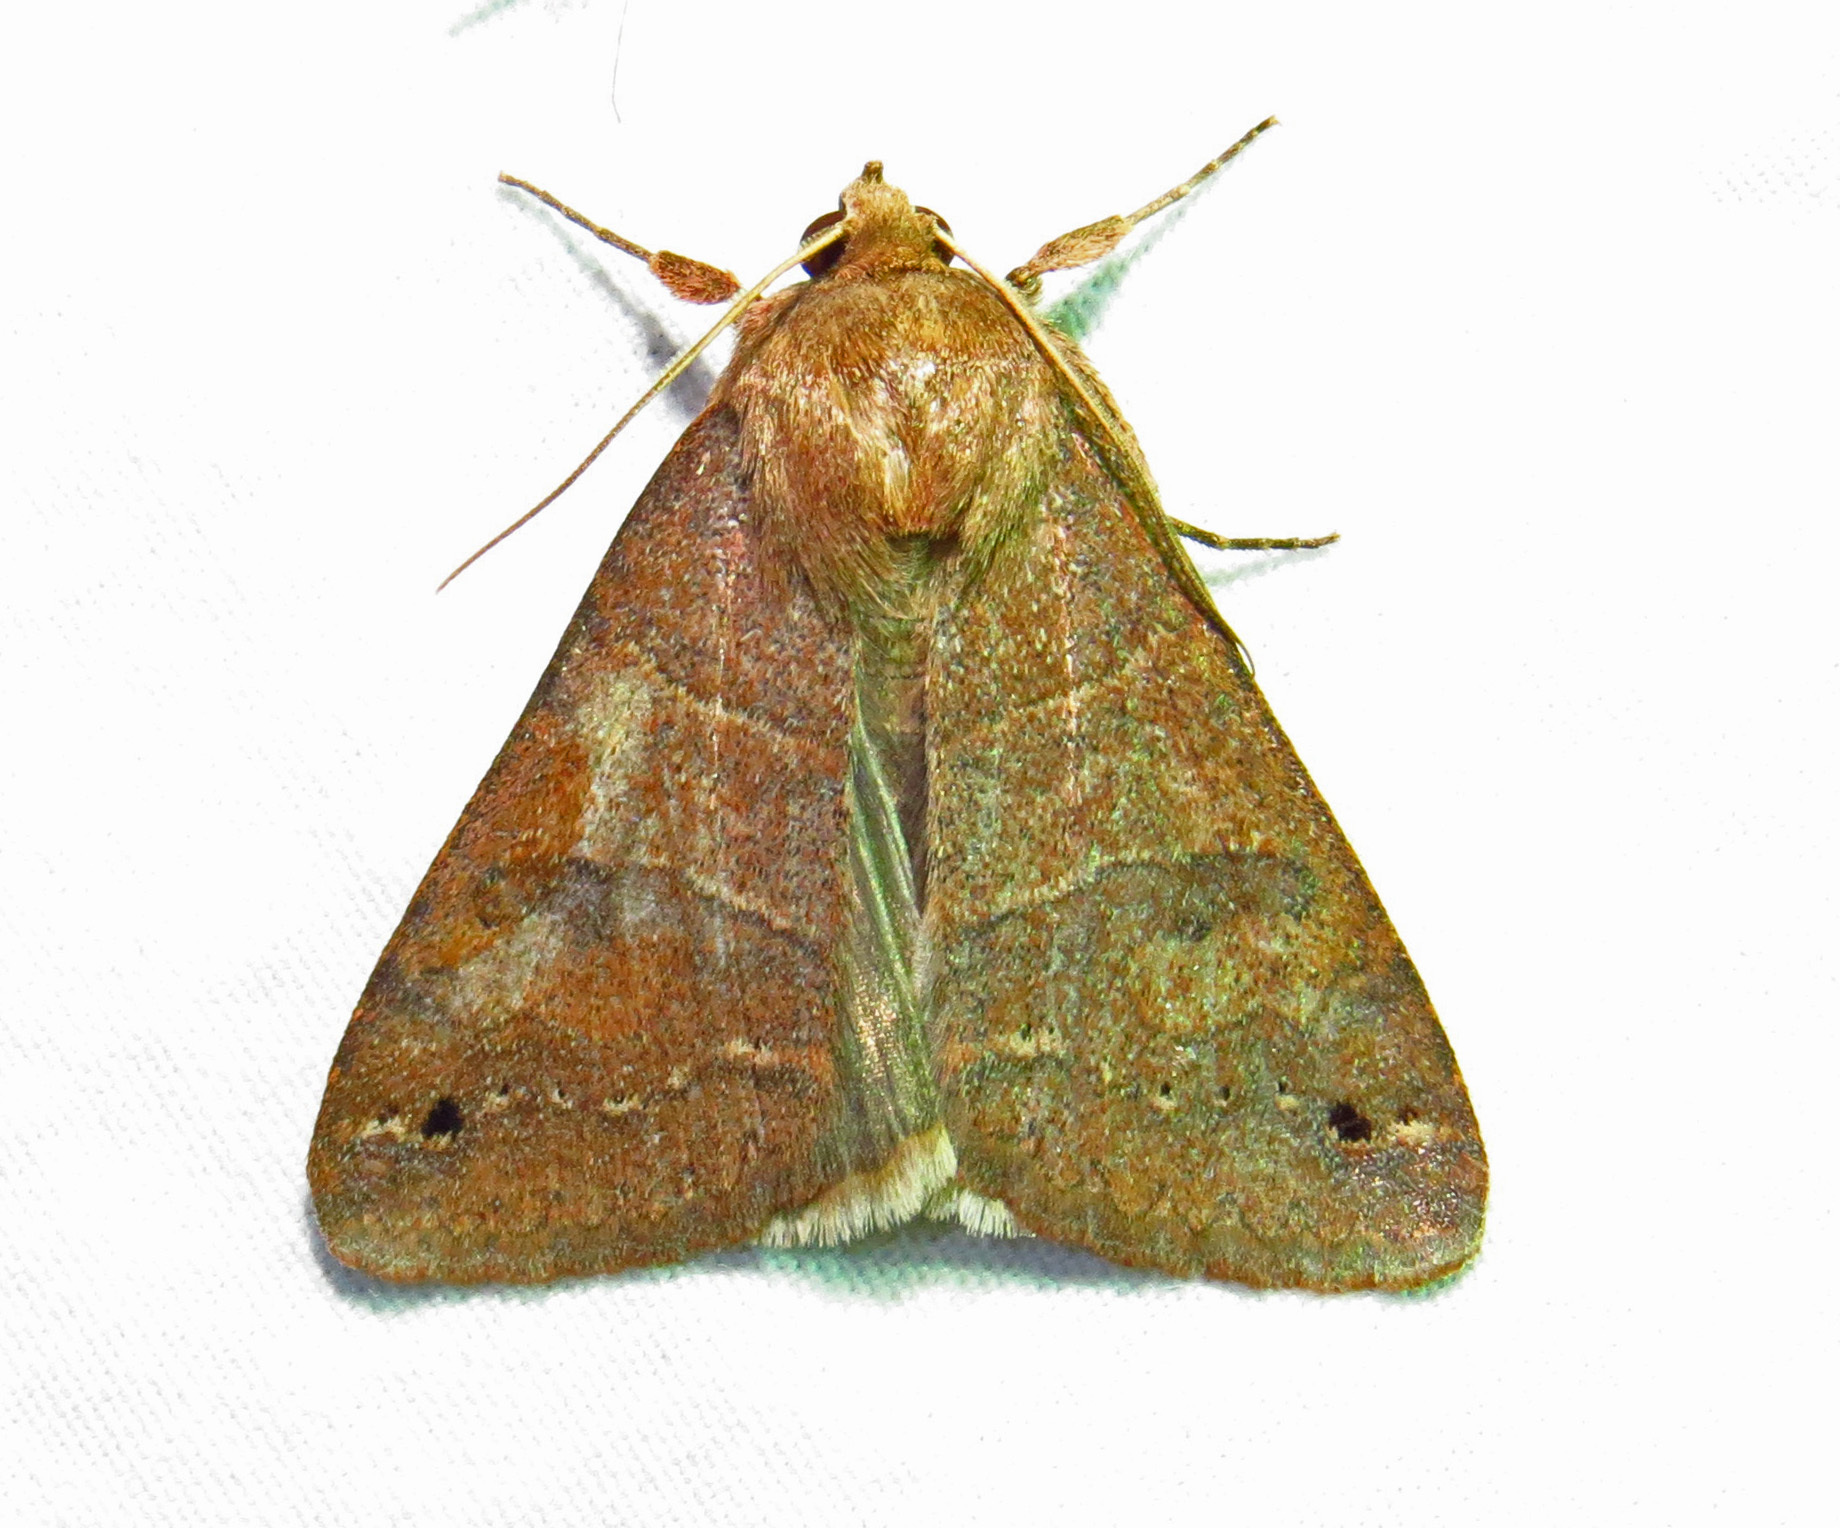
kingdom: Animalia
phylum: Arthropoda
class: Insecta
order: Lepidoptera
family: Erebidae
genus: Cissusa
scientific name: Cissusa spadix
